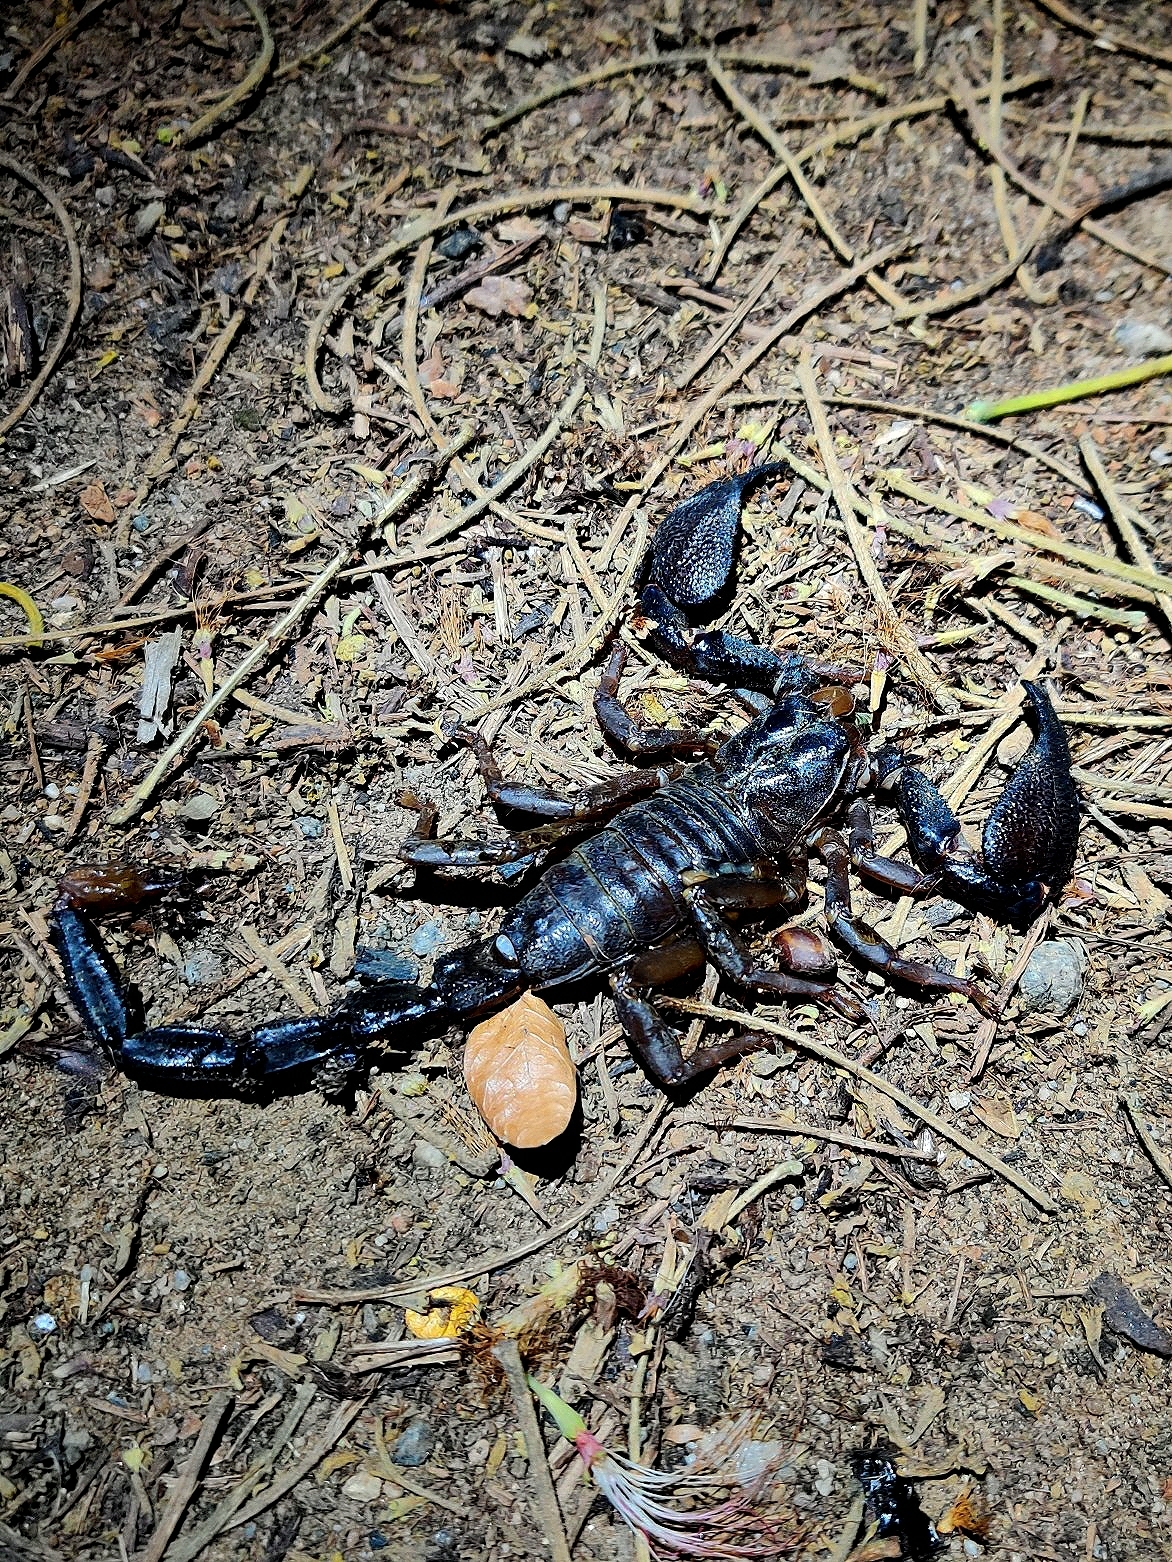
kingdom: Animalia
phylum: Arthropoda
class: Arachnida
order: Scorpiones
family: Scorpionidae
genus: Gigantometrus
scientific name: Gigantometrus swammerdami
